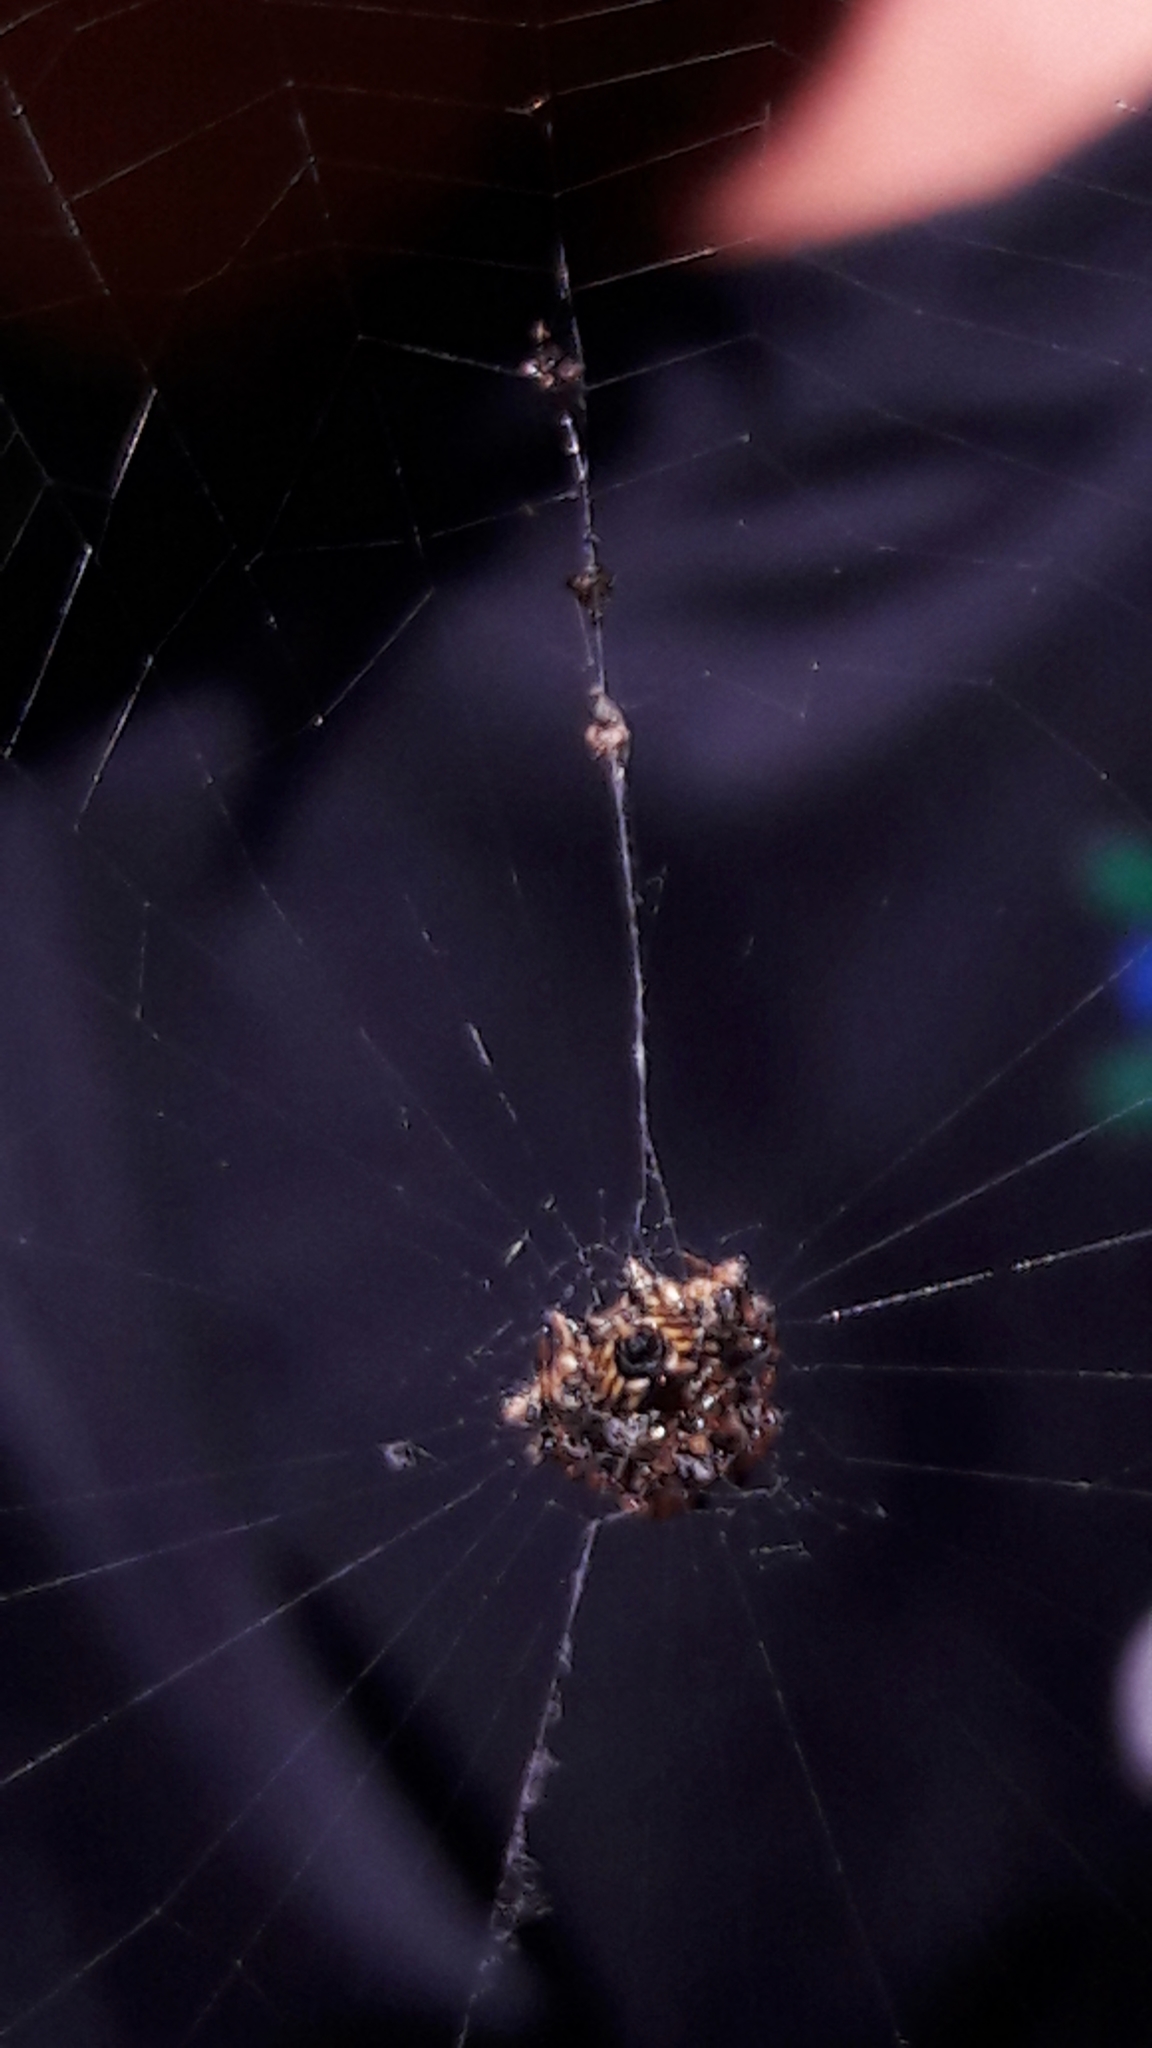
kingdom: Animalia
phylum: Arthropoda
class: Arachnida
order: Araneae
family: Araneidae
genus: Gasteracantha
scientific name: Gasteracantha cancriformis
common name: Orb weavers
